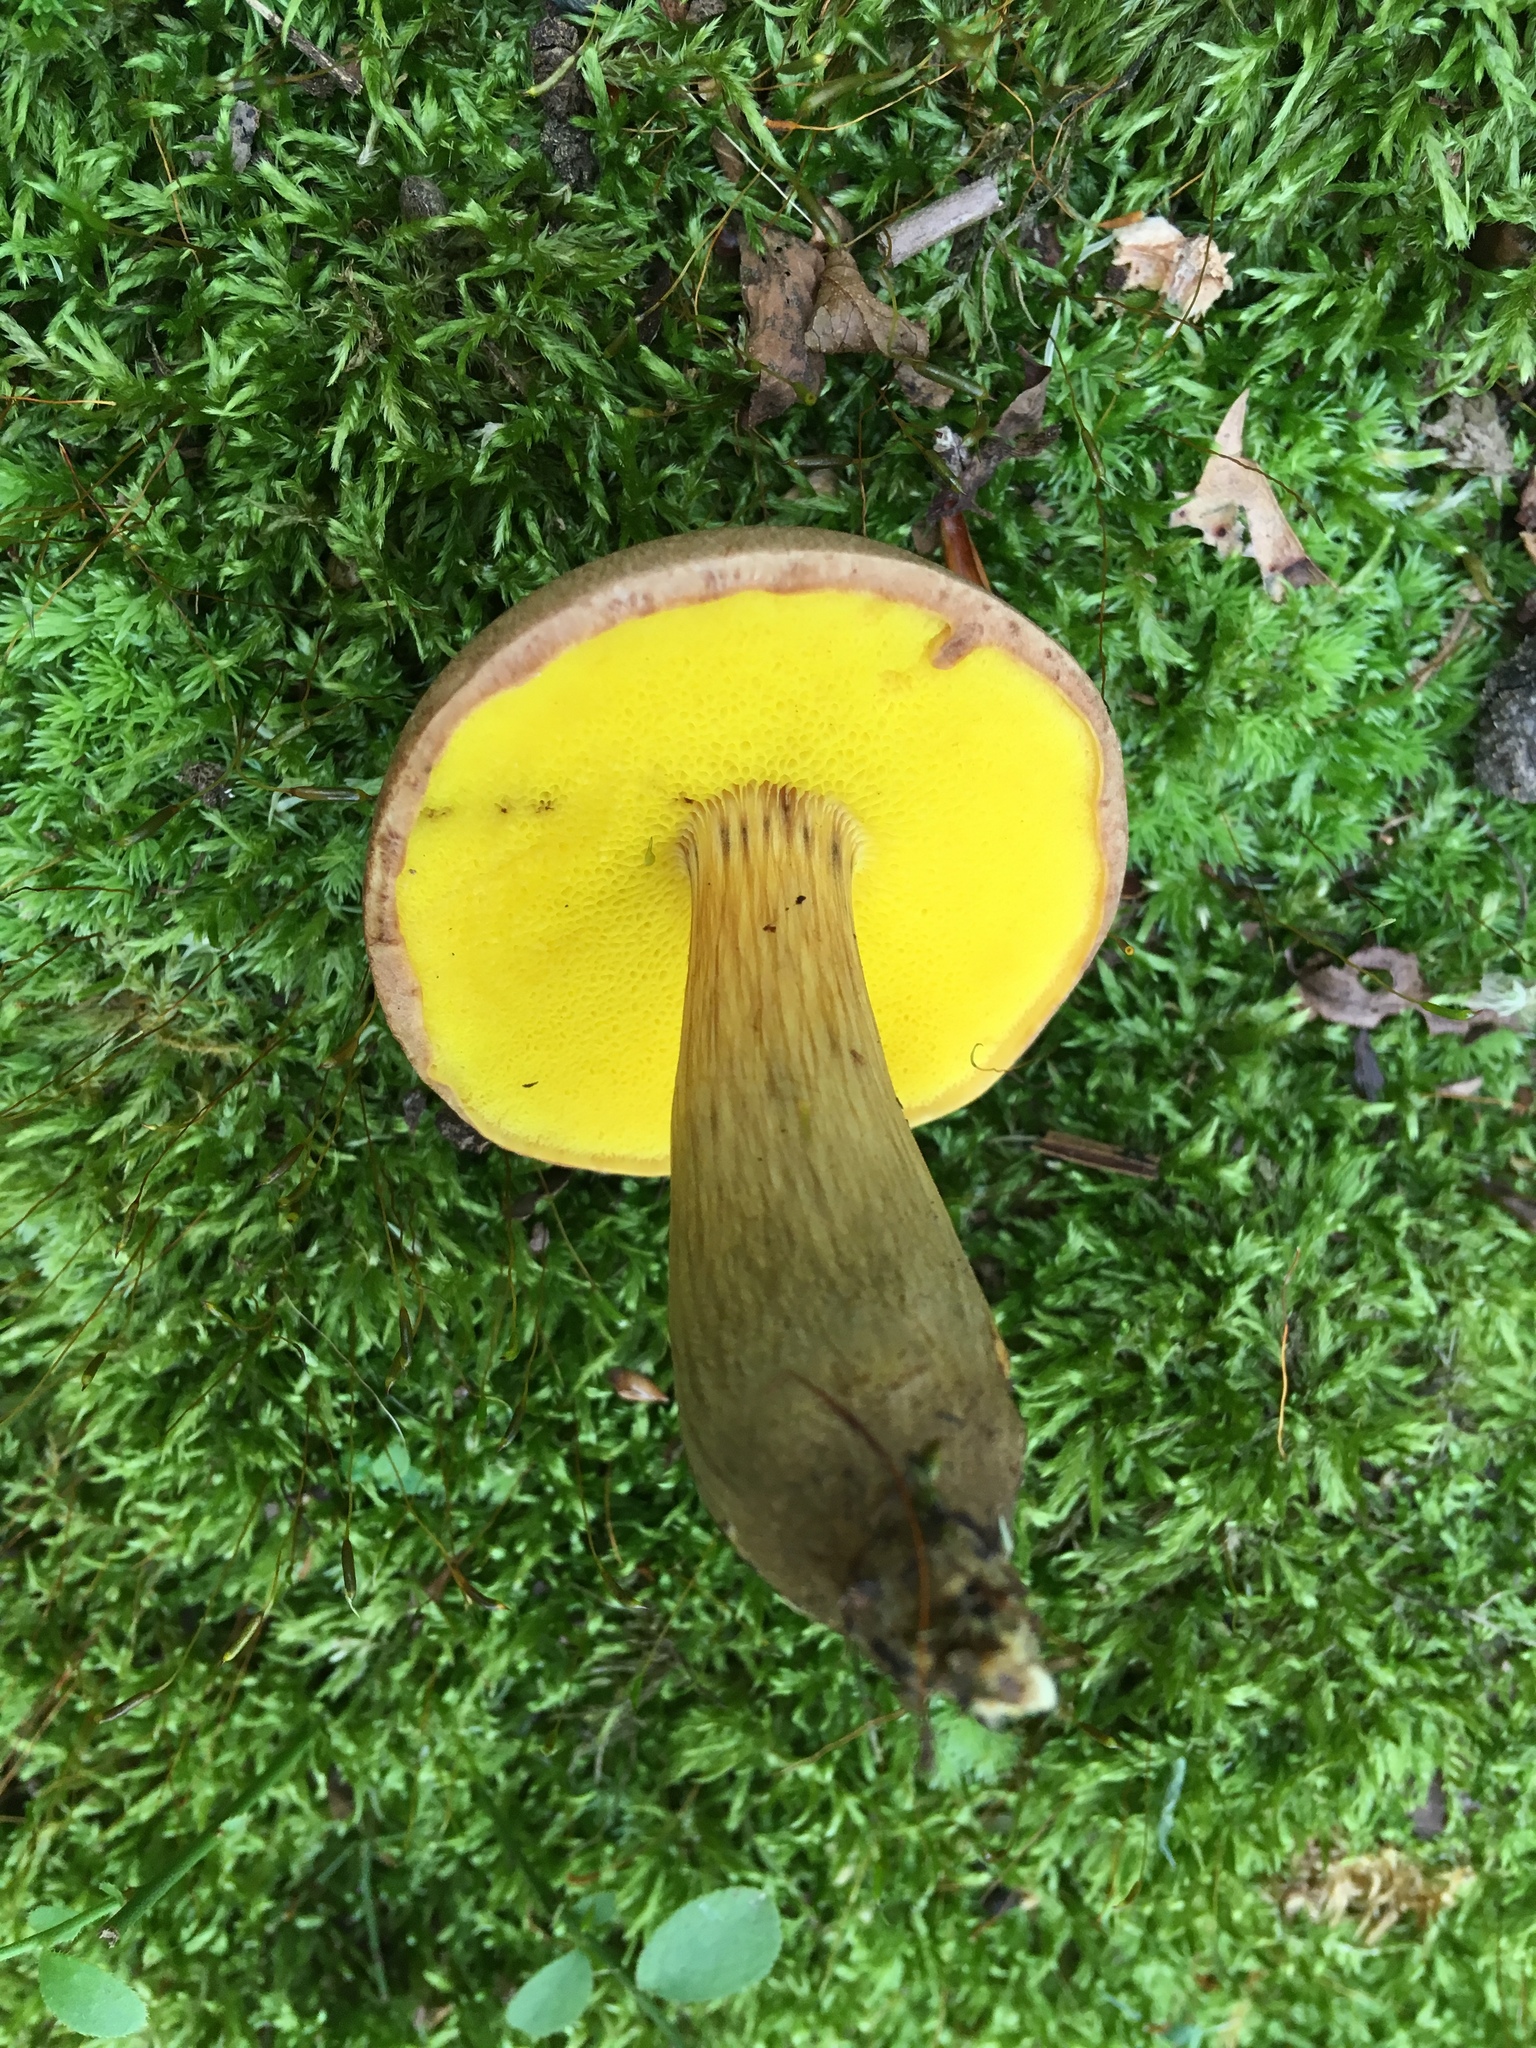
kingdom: Fungi
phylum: Basidiomycota
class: Agaricomycetes
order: Boletales
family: Boletaceae
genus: Aureoboletus
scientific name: Aureoboletus innixus
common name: Clustered brown bolete
